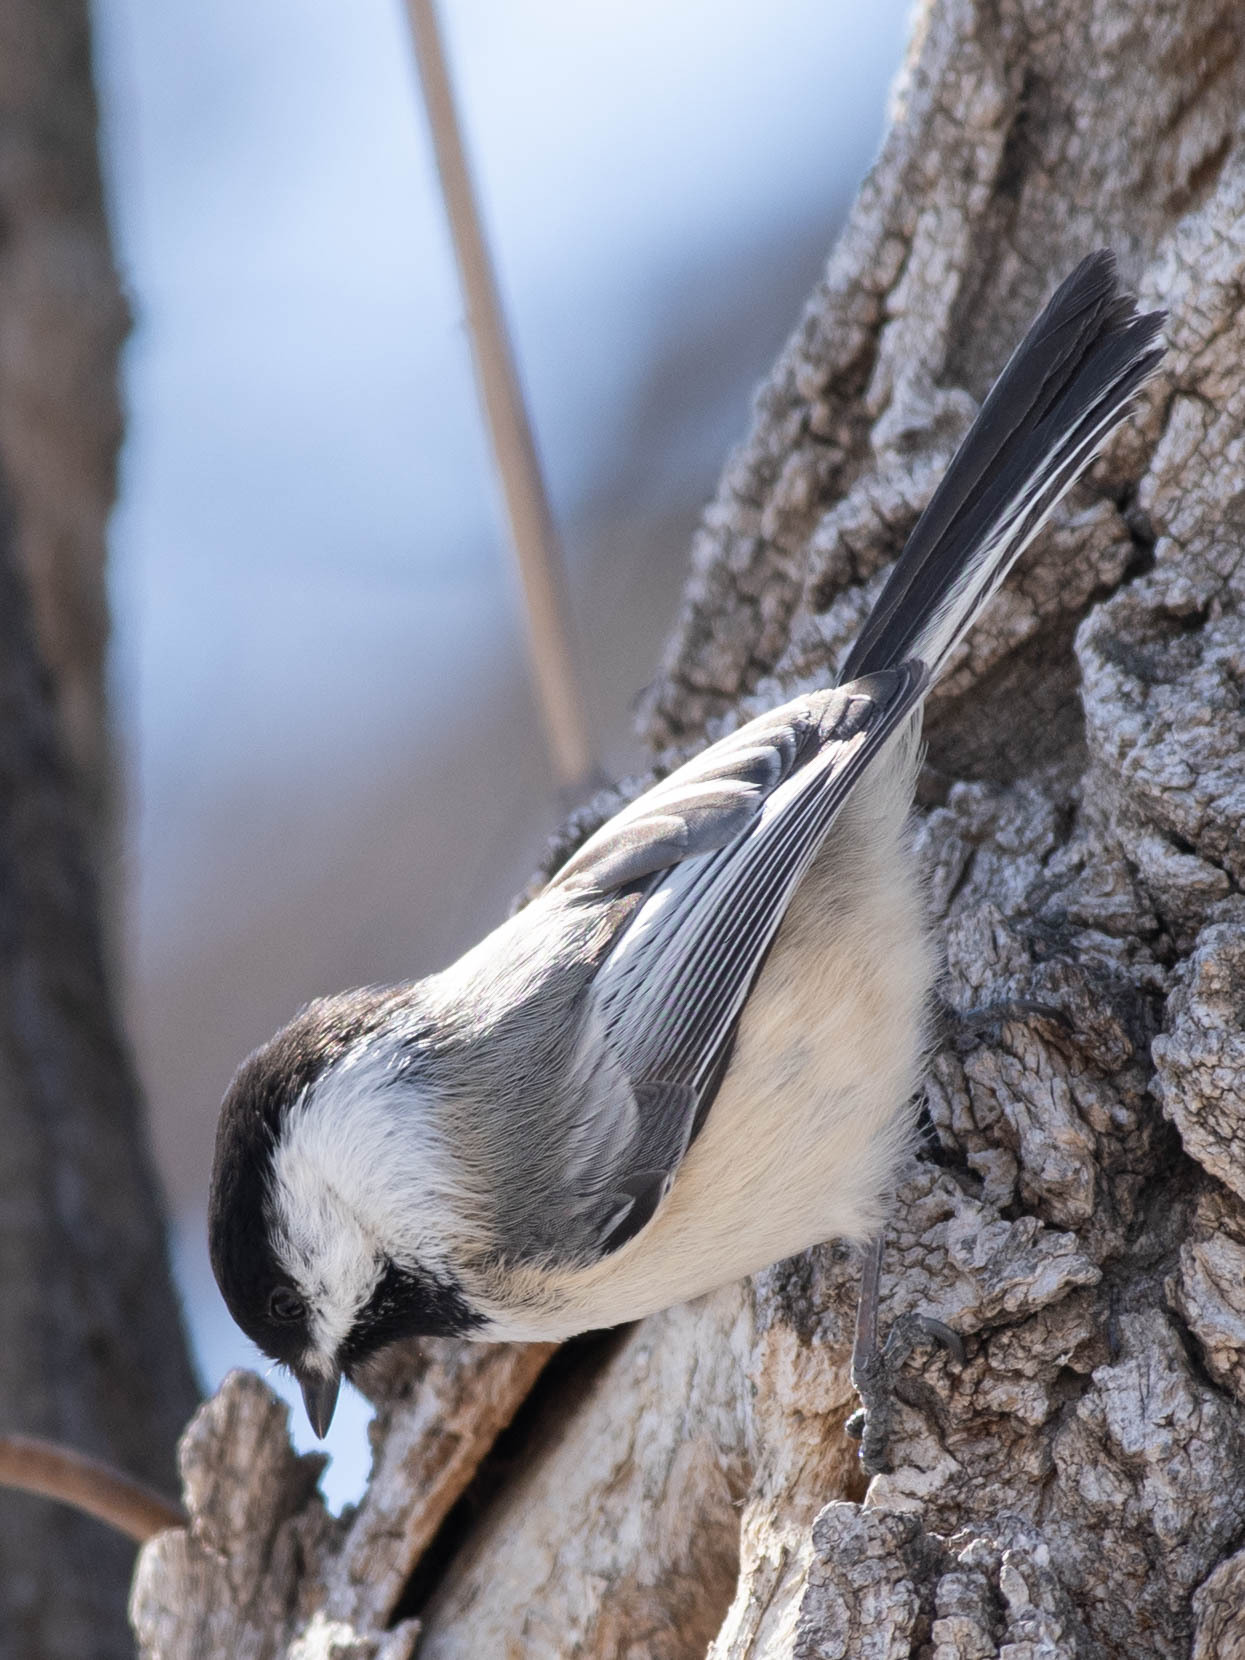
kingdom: Animalia
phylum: Chordata
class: Aves
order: Passeriformes
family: Paridae
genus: Poecile
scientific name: Poecile atricapillus
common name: Black-capped chickadee
